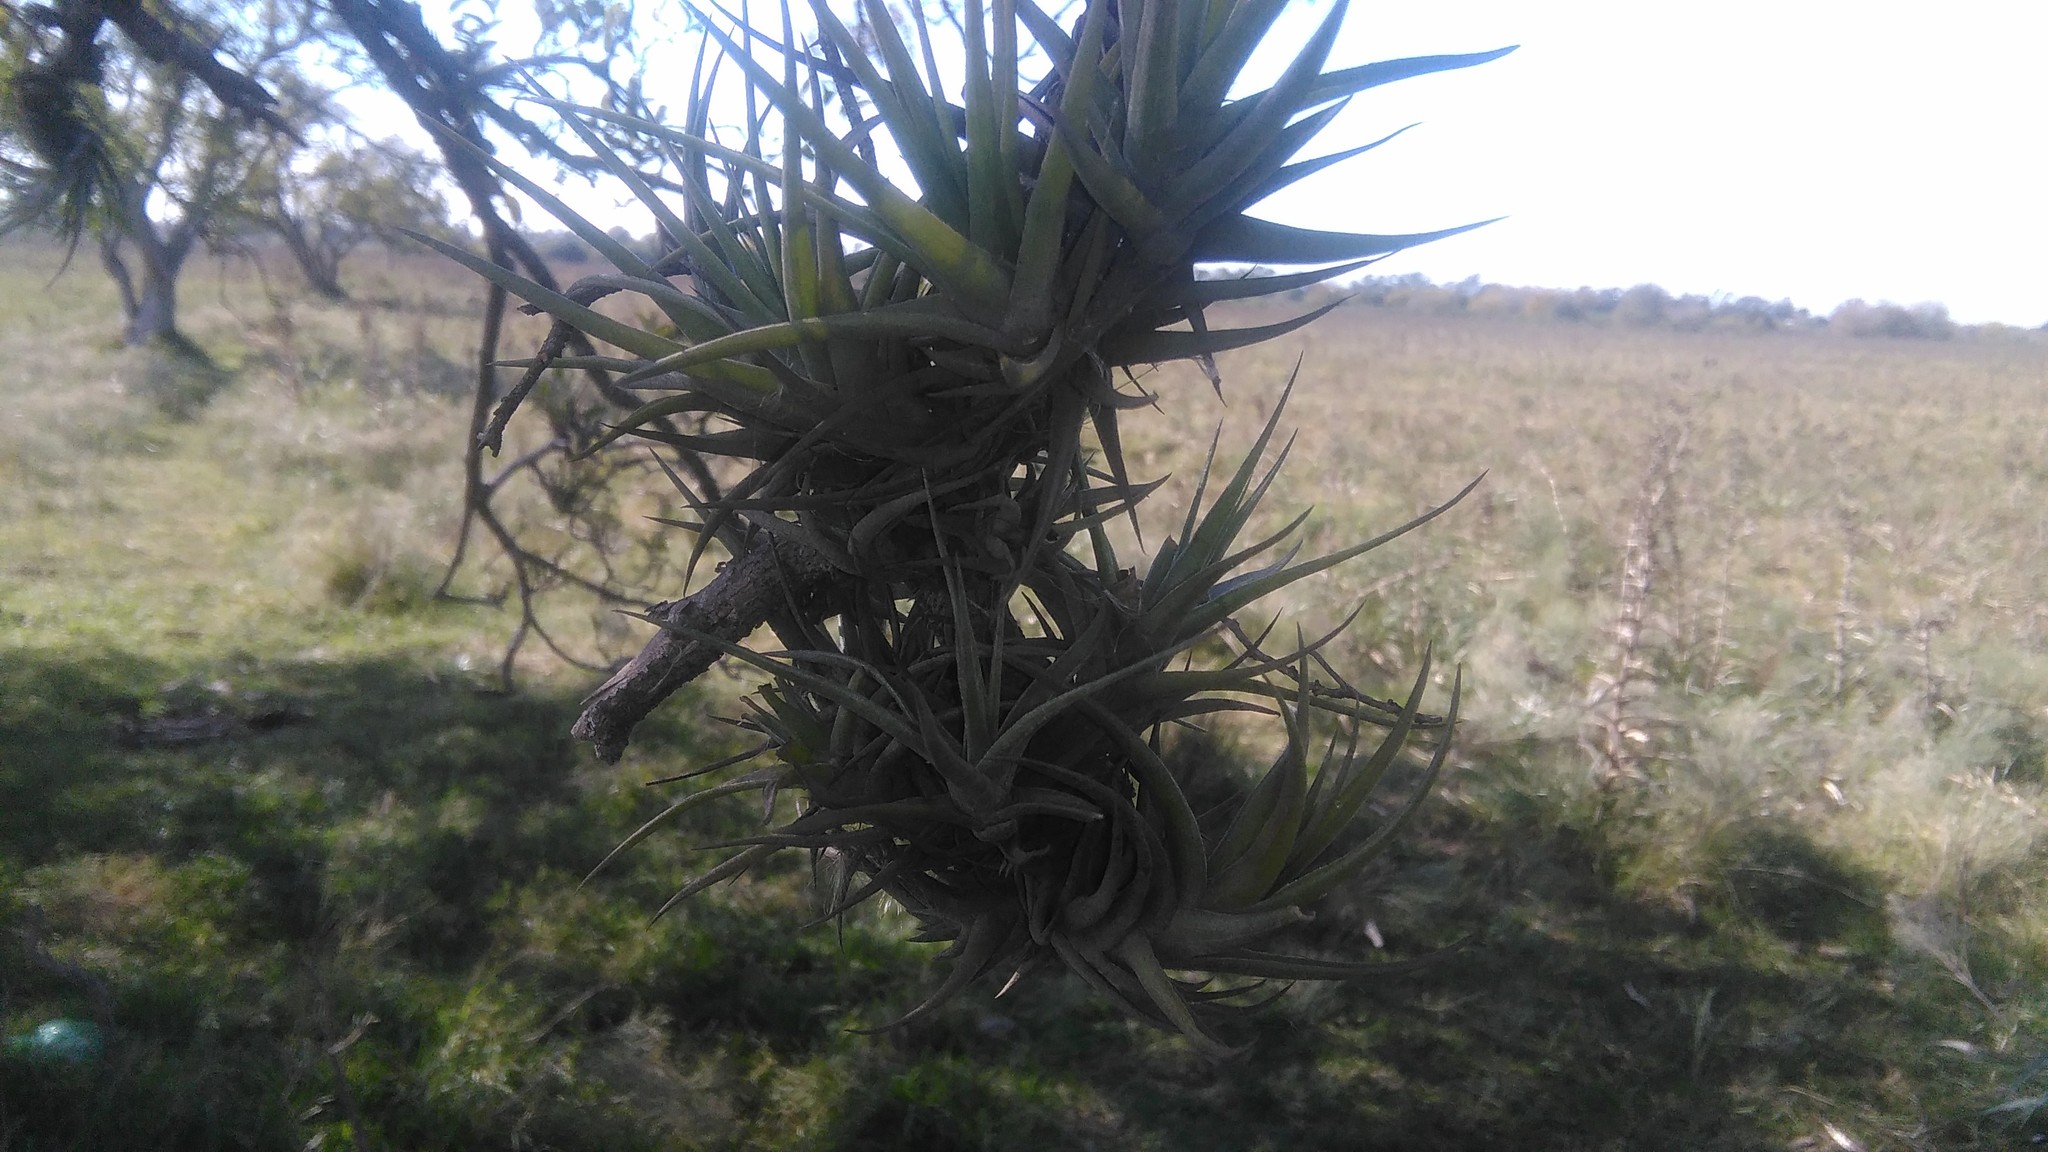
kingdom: Plantae
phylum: Tracheophyta
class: Liliopsida
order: Poales
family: Bromeliaceae
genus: Tillandsia
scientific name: Tillandsia aeranthos
